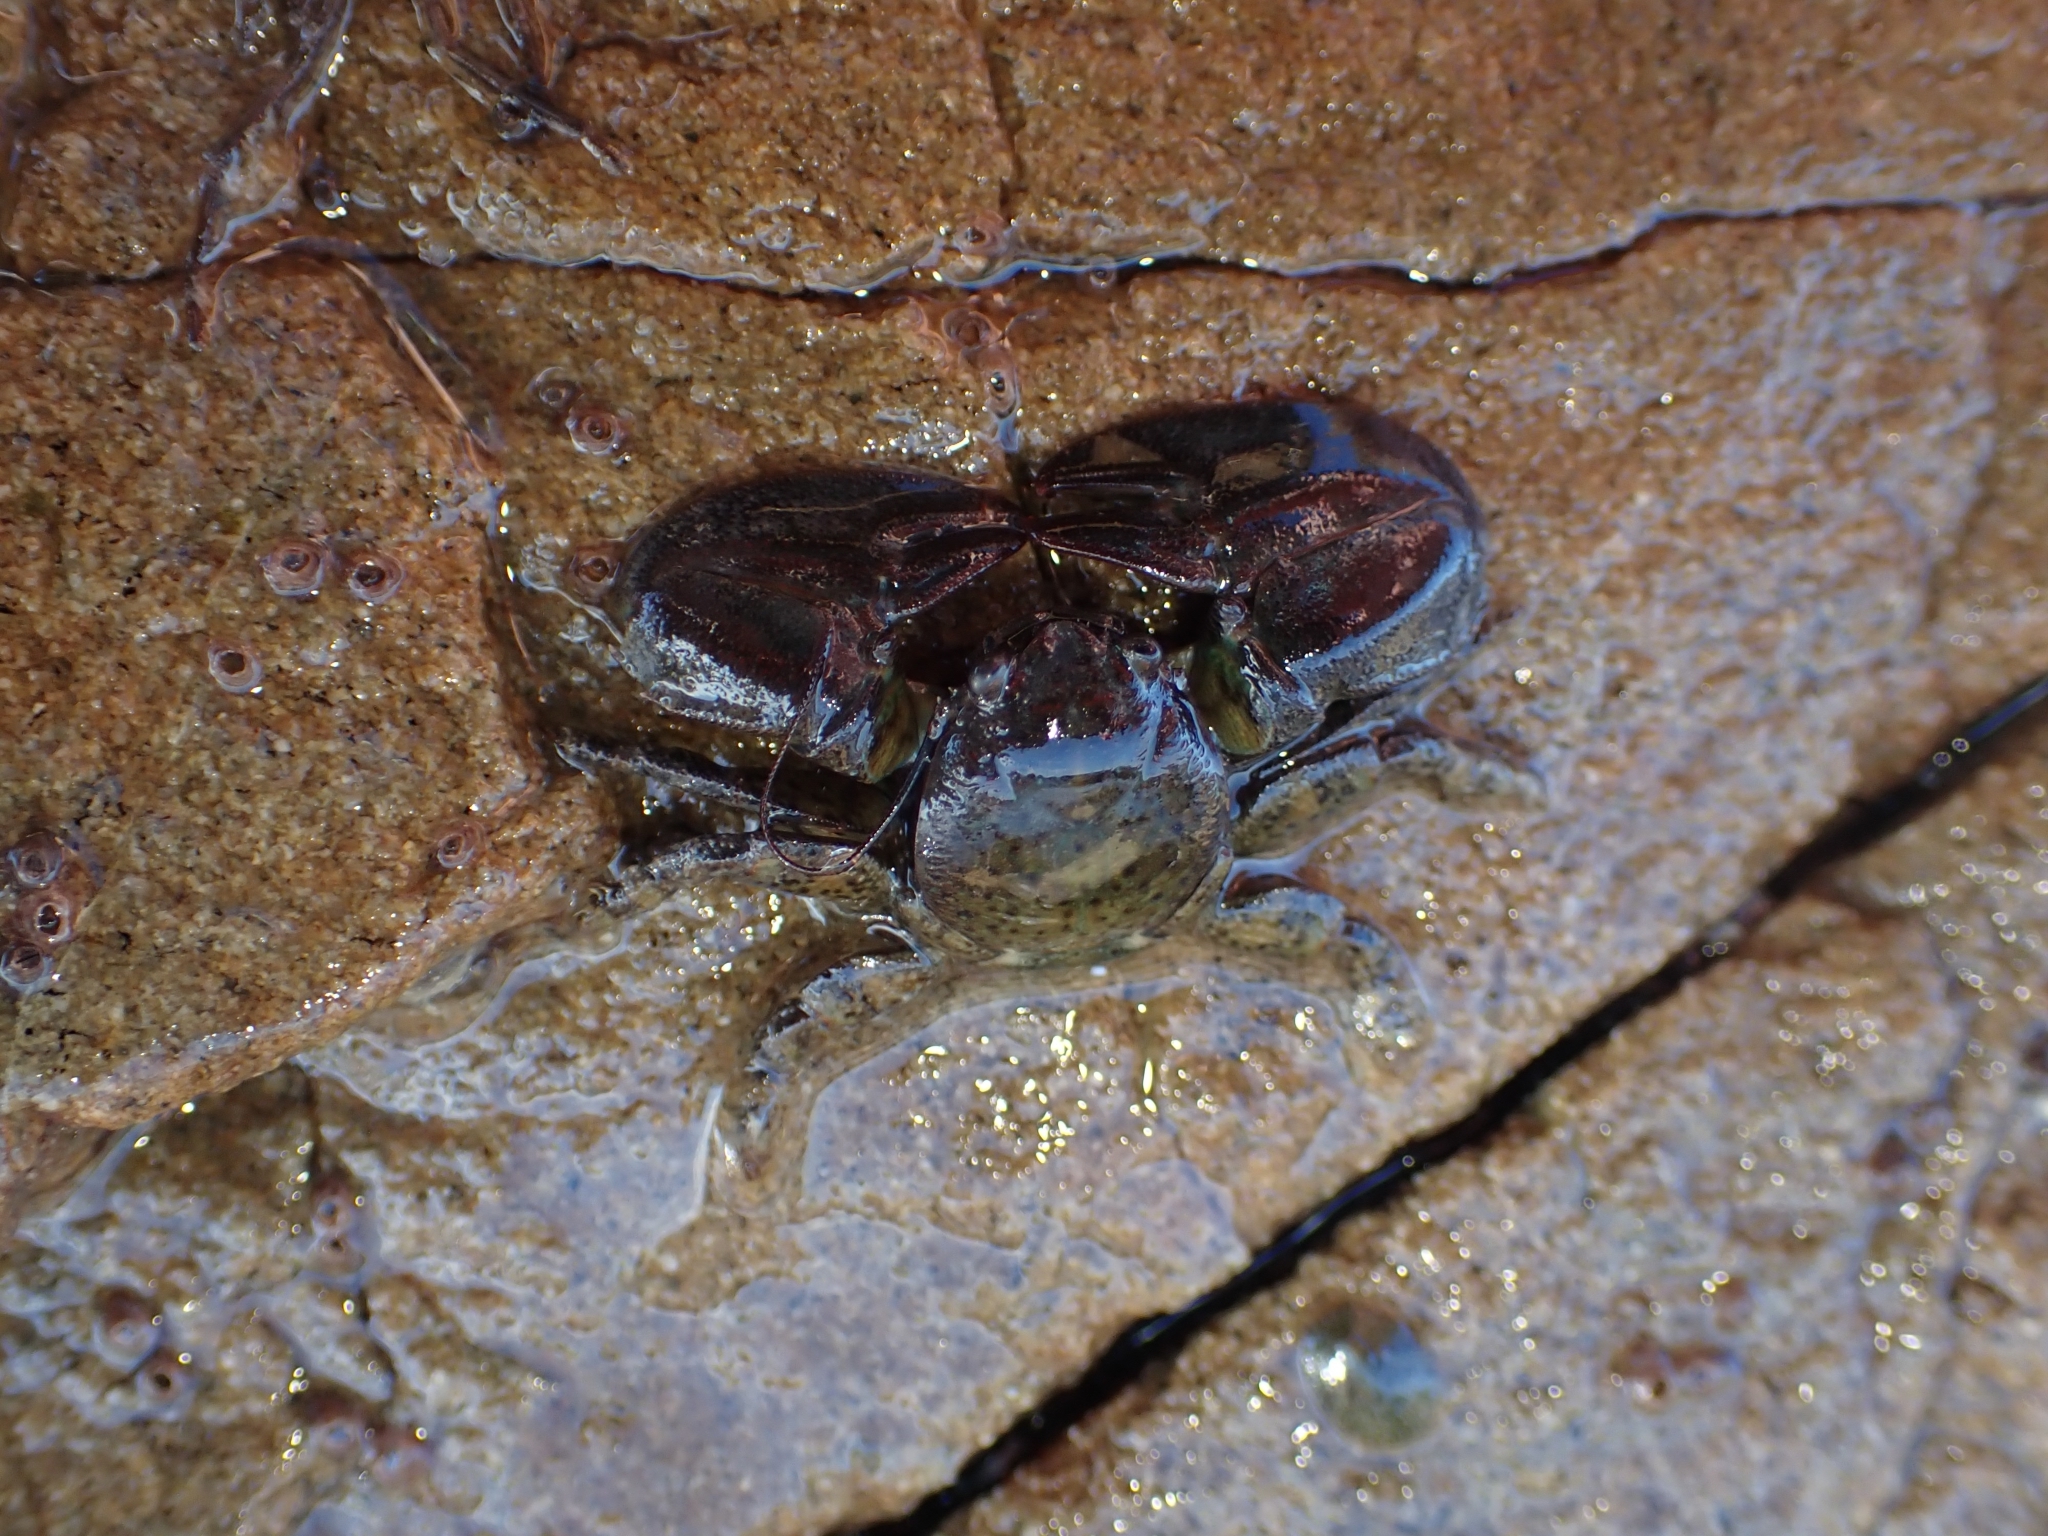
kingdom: Animalia
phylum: Arthropoda
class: Malacostraca
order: Decapoda
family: Porcellanidae
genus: Petrolisthes
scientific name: Petrolisthes elongatus
